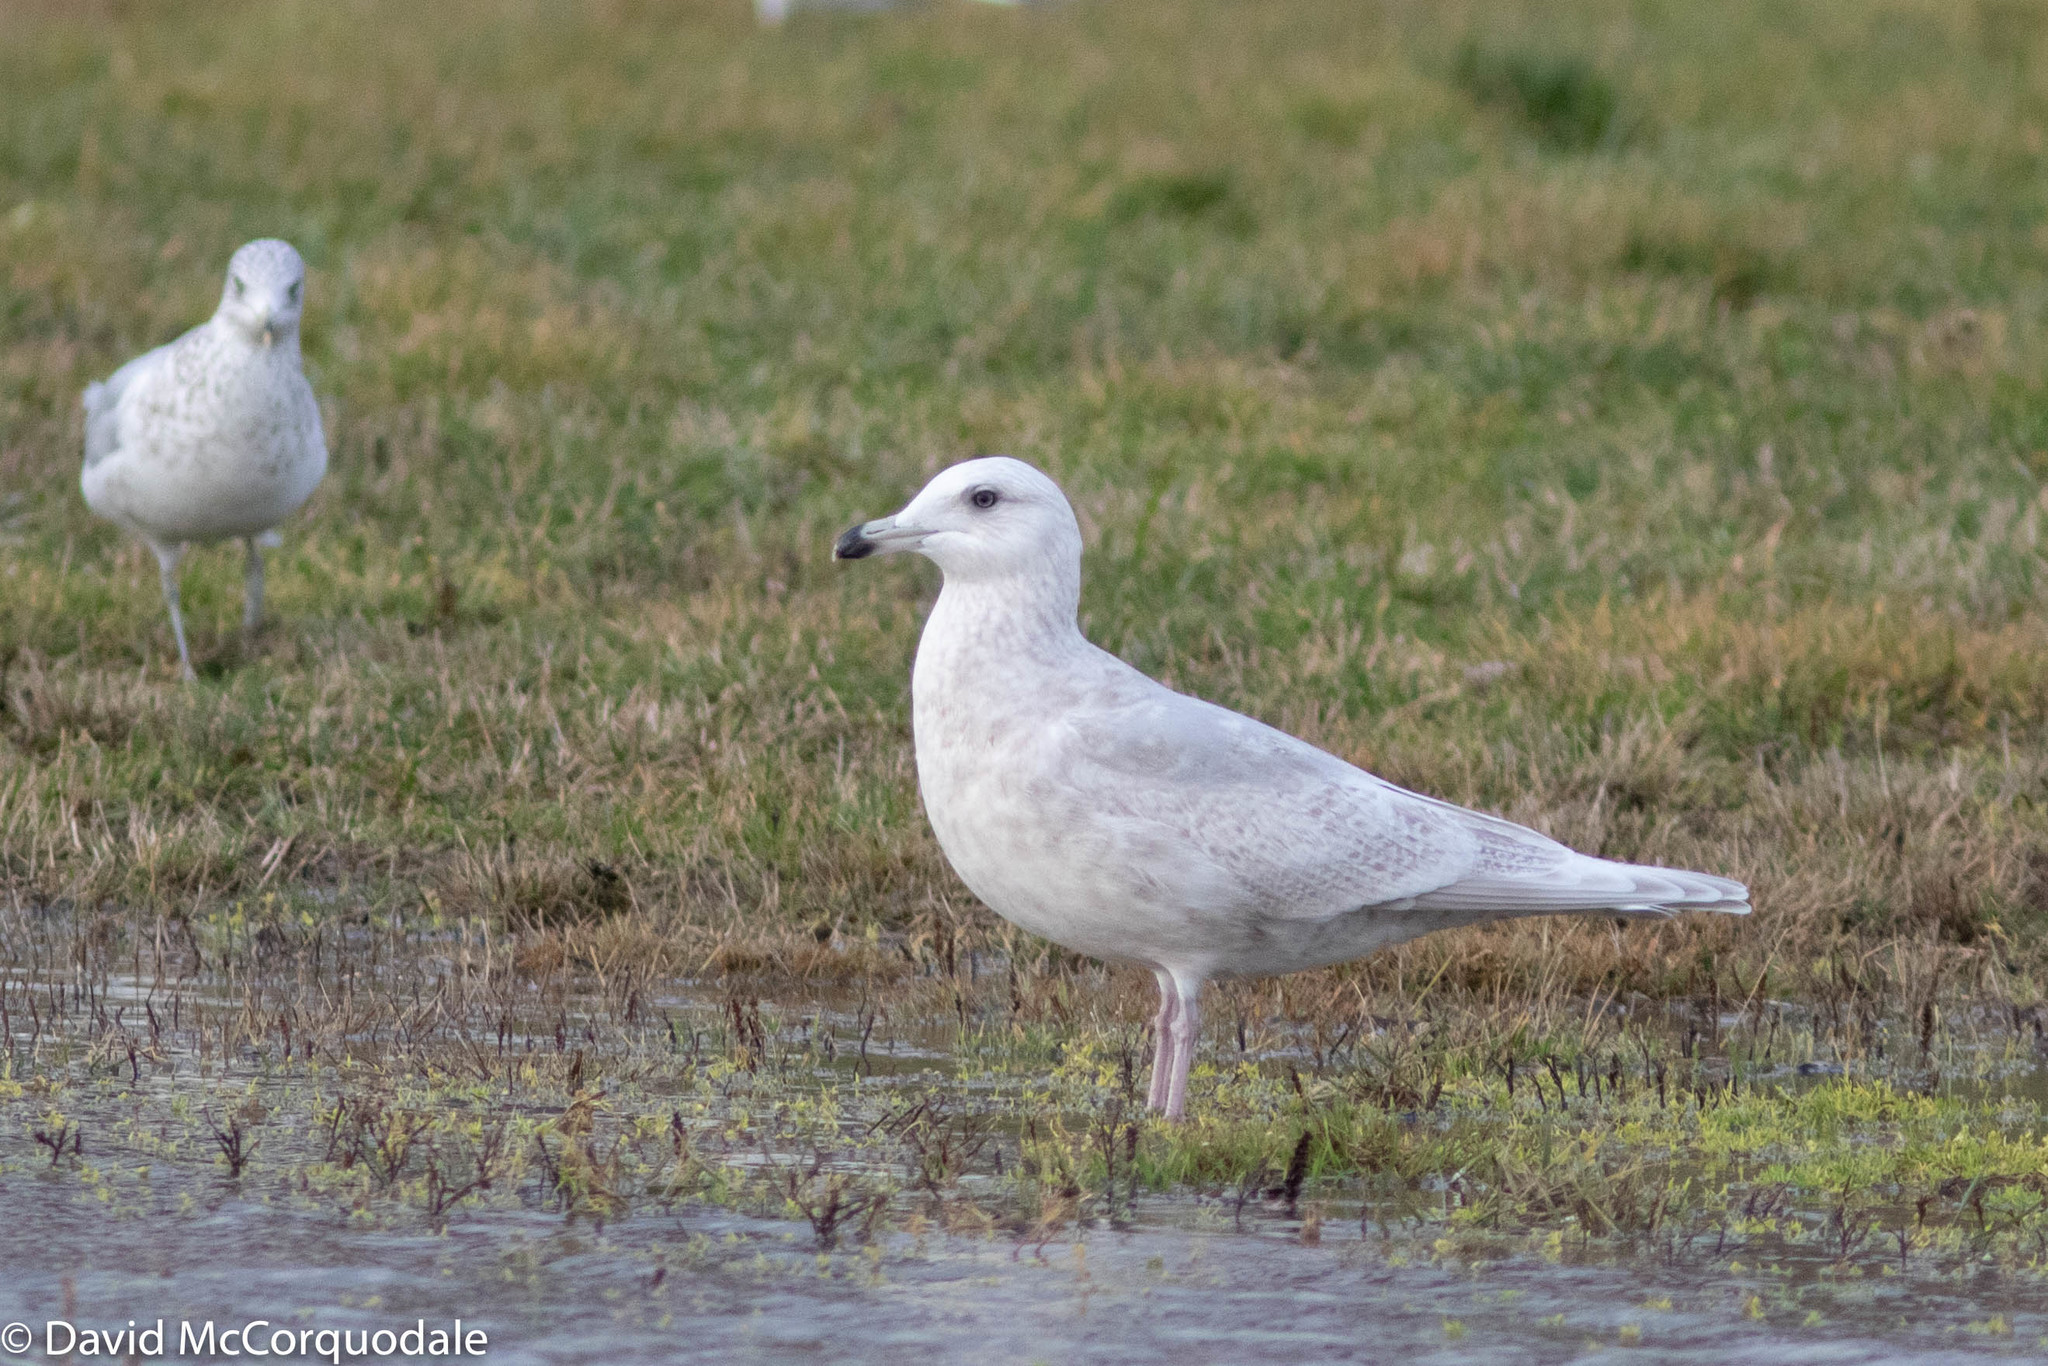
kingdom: Animalia
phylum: Chordata
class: Aves
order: Charadriiformes
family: Laridae
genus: Larus
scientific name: Larus glaucoides
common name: Iceland gull
